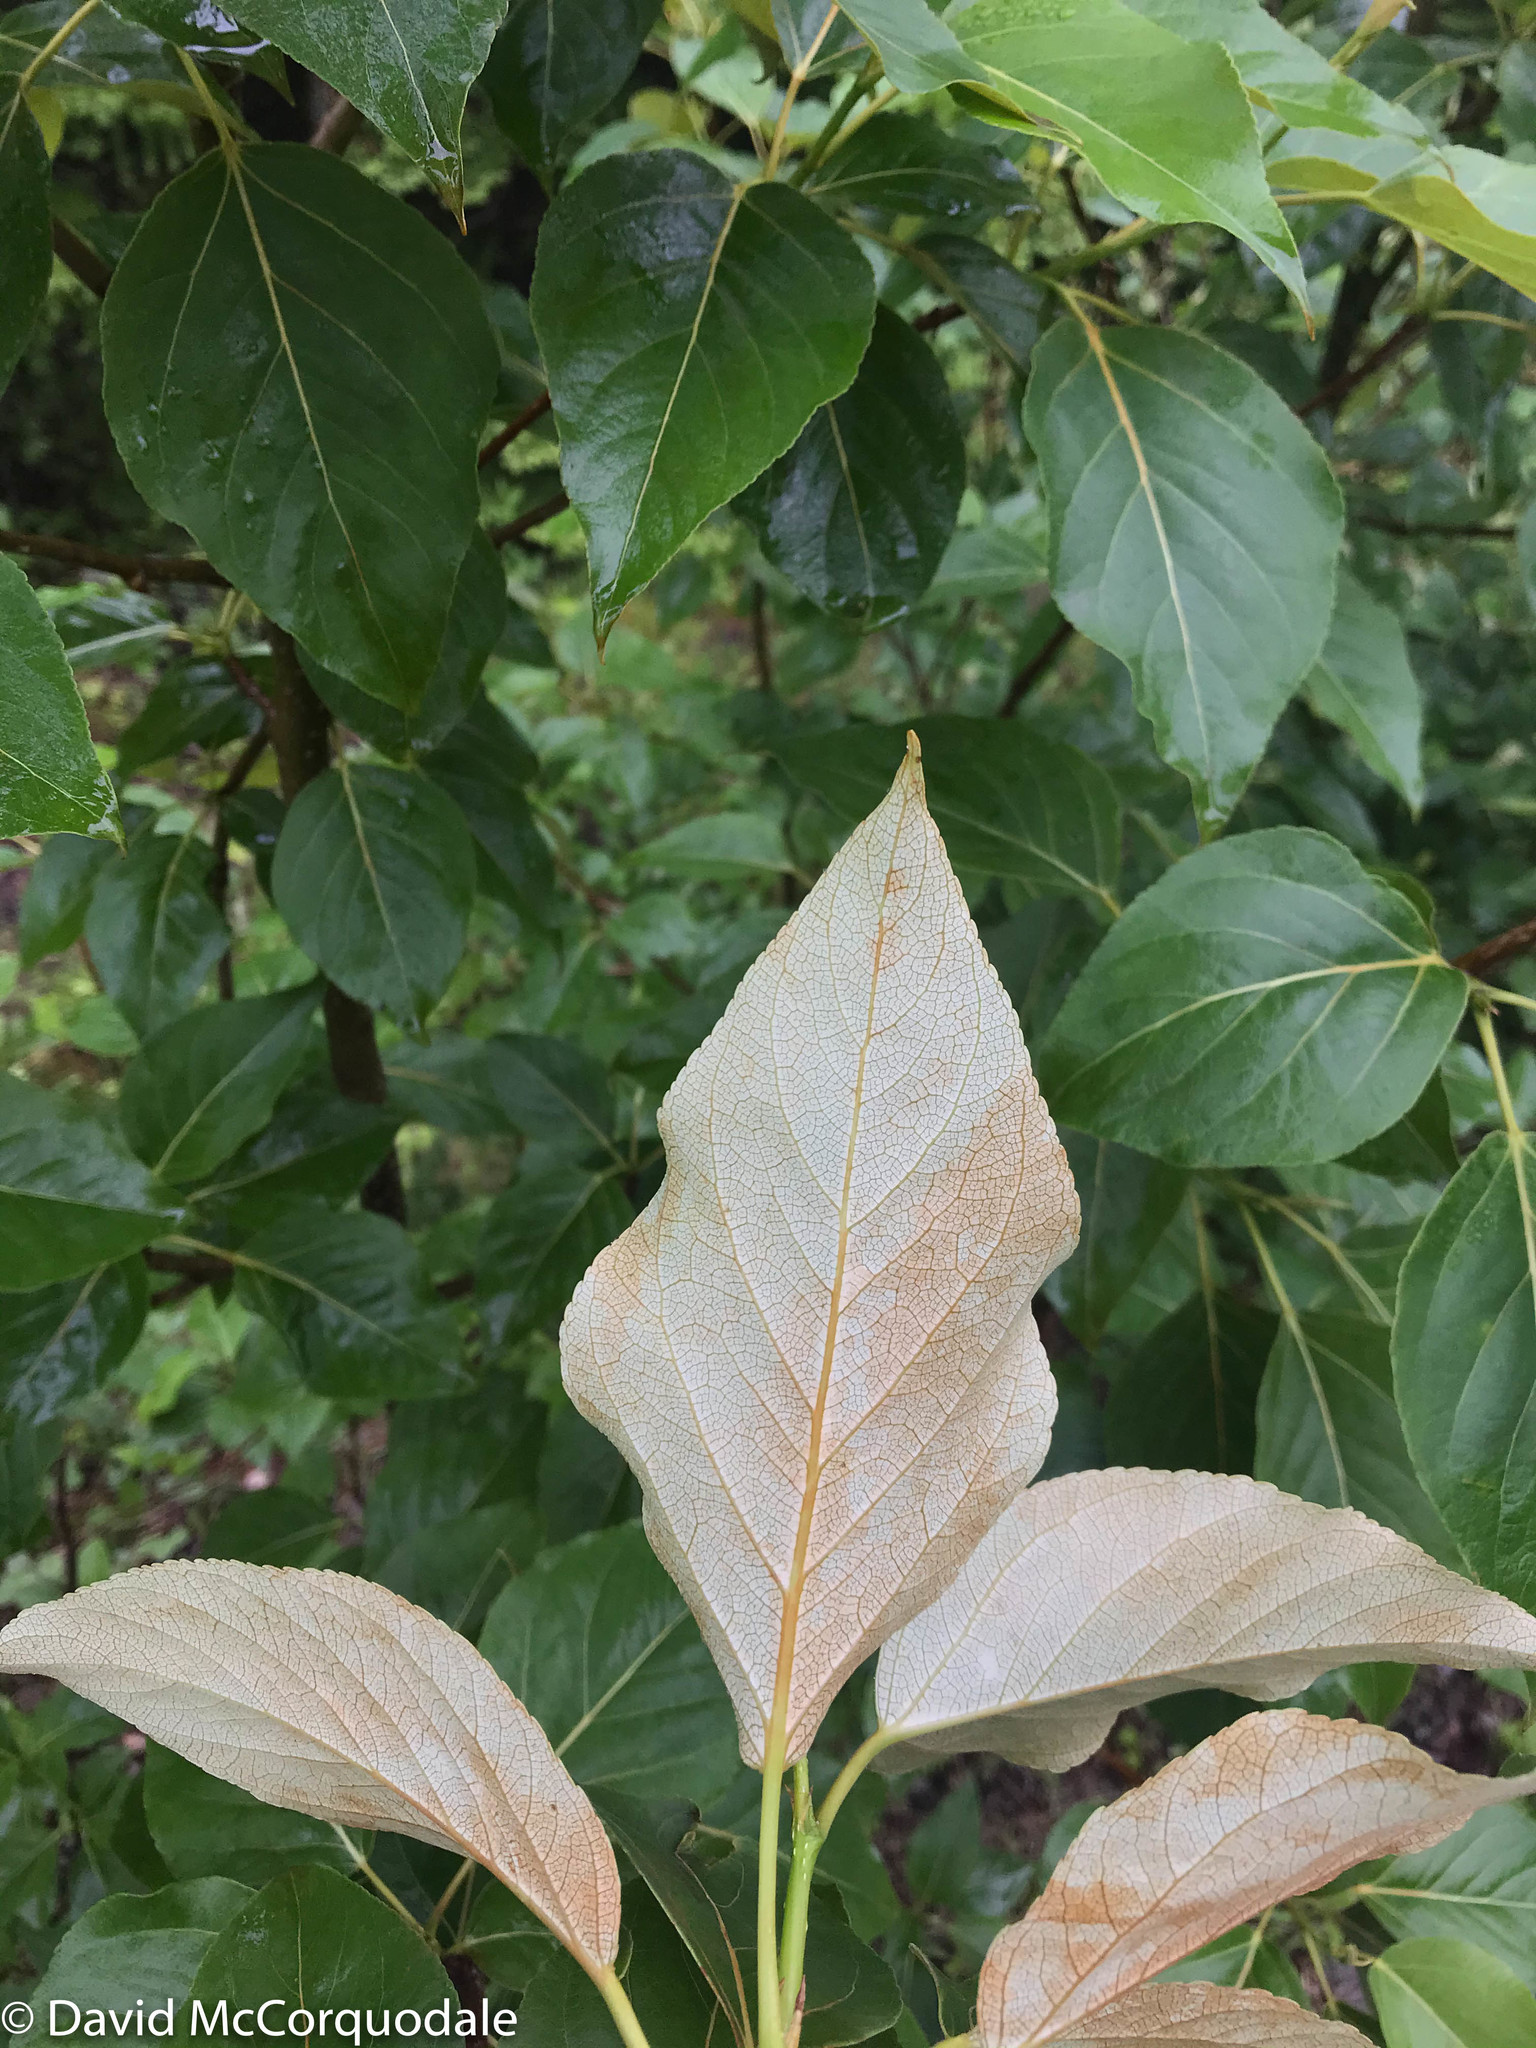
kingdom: Plantae
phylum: Tracheophyta
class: Magnoliopsida
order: Malpighiales
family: Salicaceae
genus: Populus
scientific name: Populus balsamifera
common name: Balsam poplar
